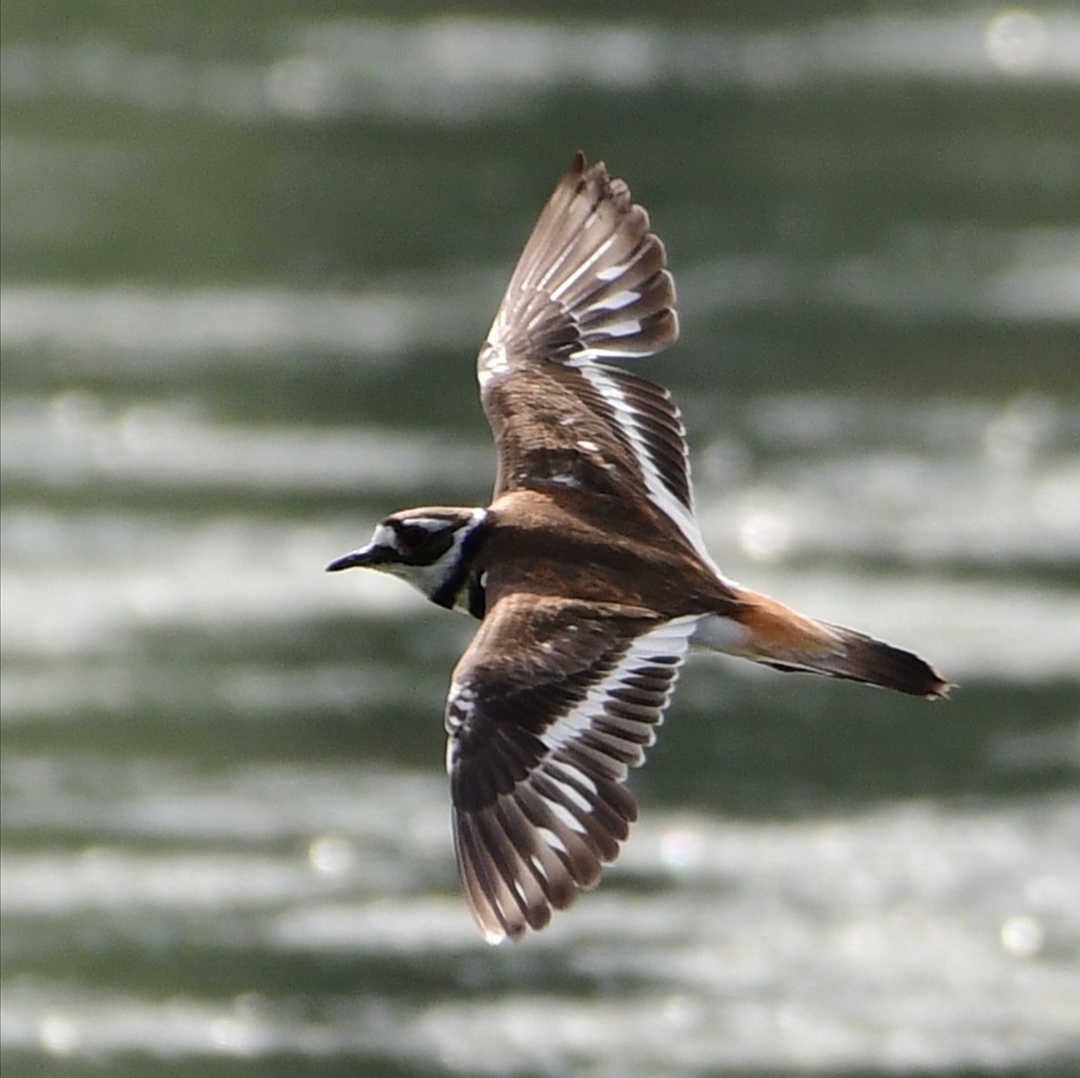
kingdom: Animalia
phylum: Chordata
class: Aves
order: Charadriiformes
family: Charadriidae
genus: Charadrius
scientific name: Charadrius vociferus
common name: Killdeer
